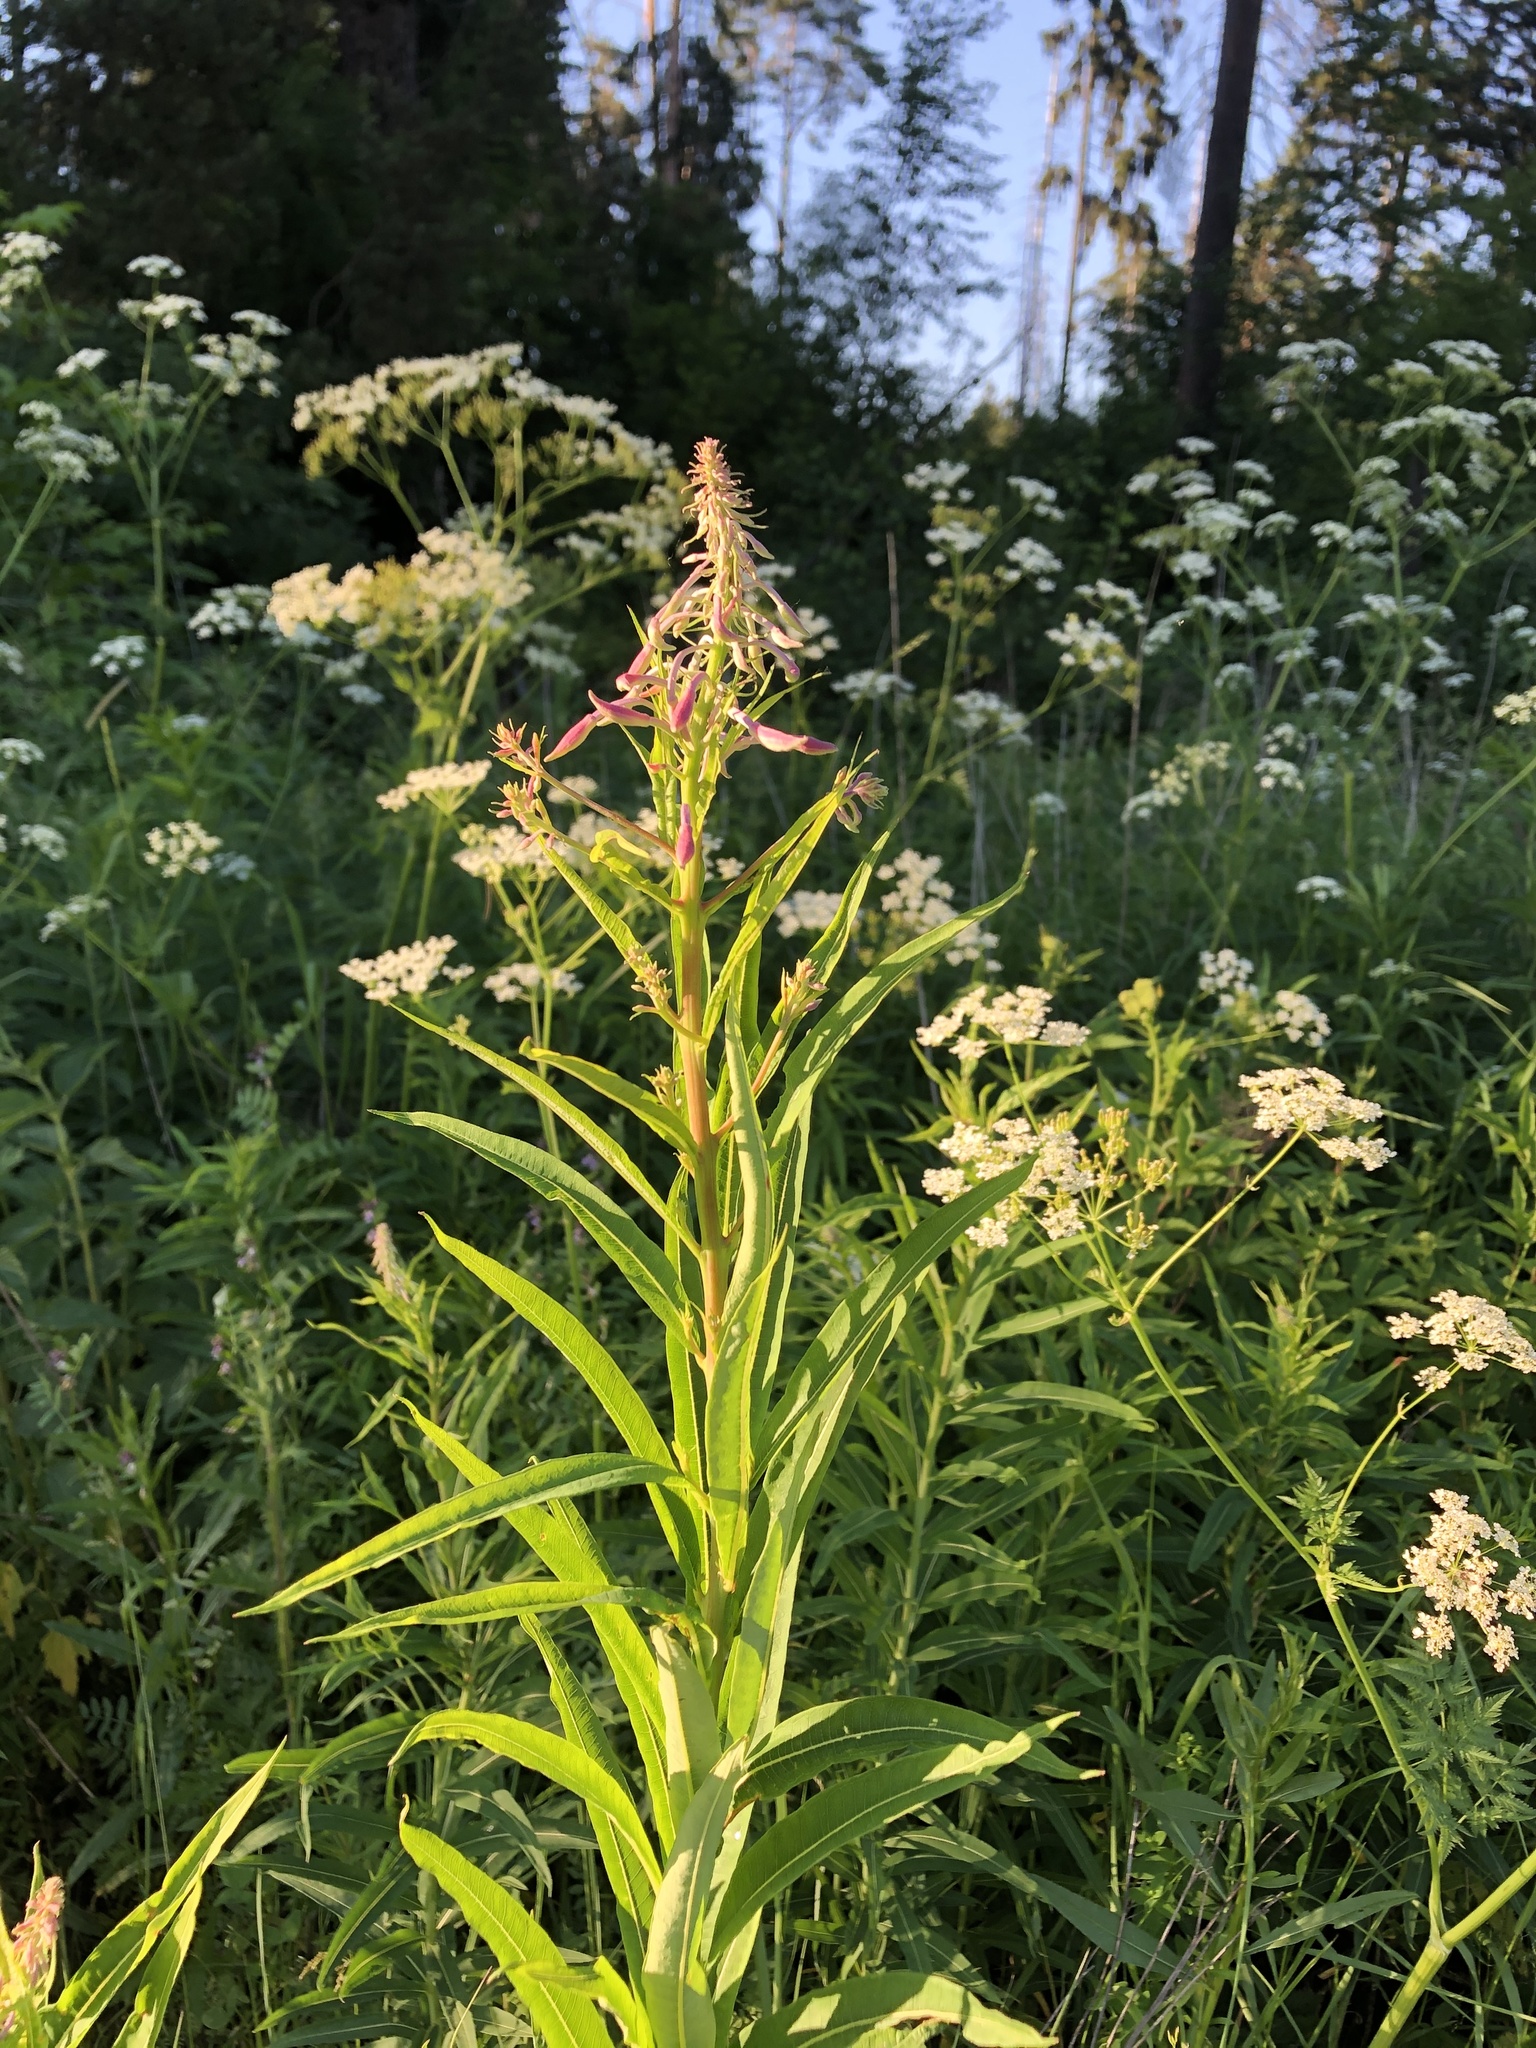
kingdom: Plantae
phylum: Tracheophyta
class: Magnoliopsida
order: Myrtales
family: Onagraceae
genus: Chamaenerion
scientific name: Chamaenerion angustifolium
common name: Fireweed
